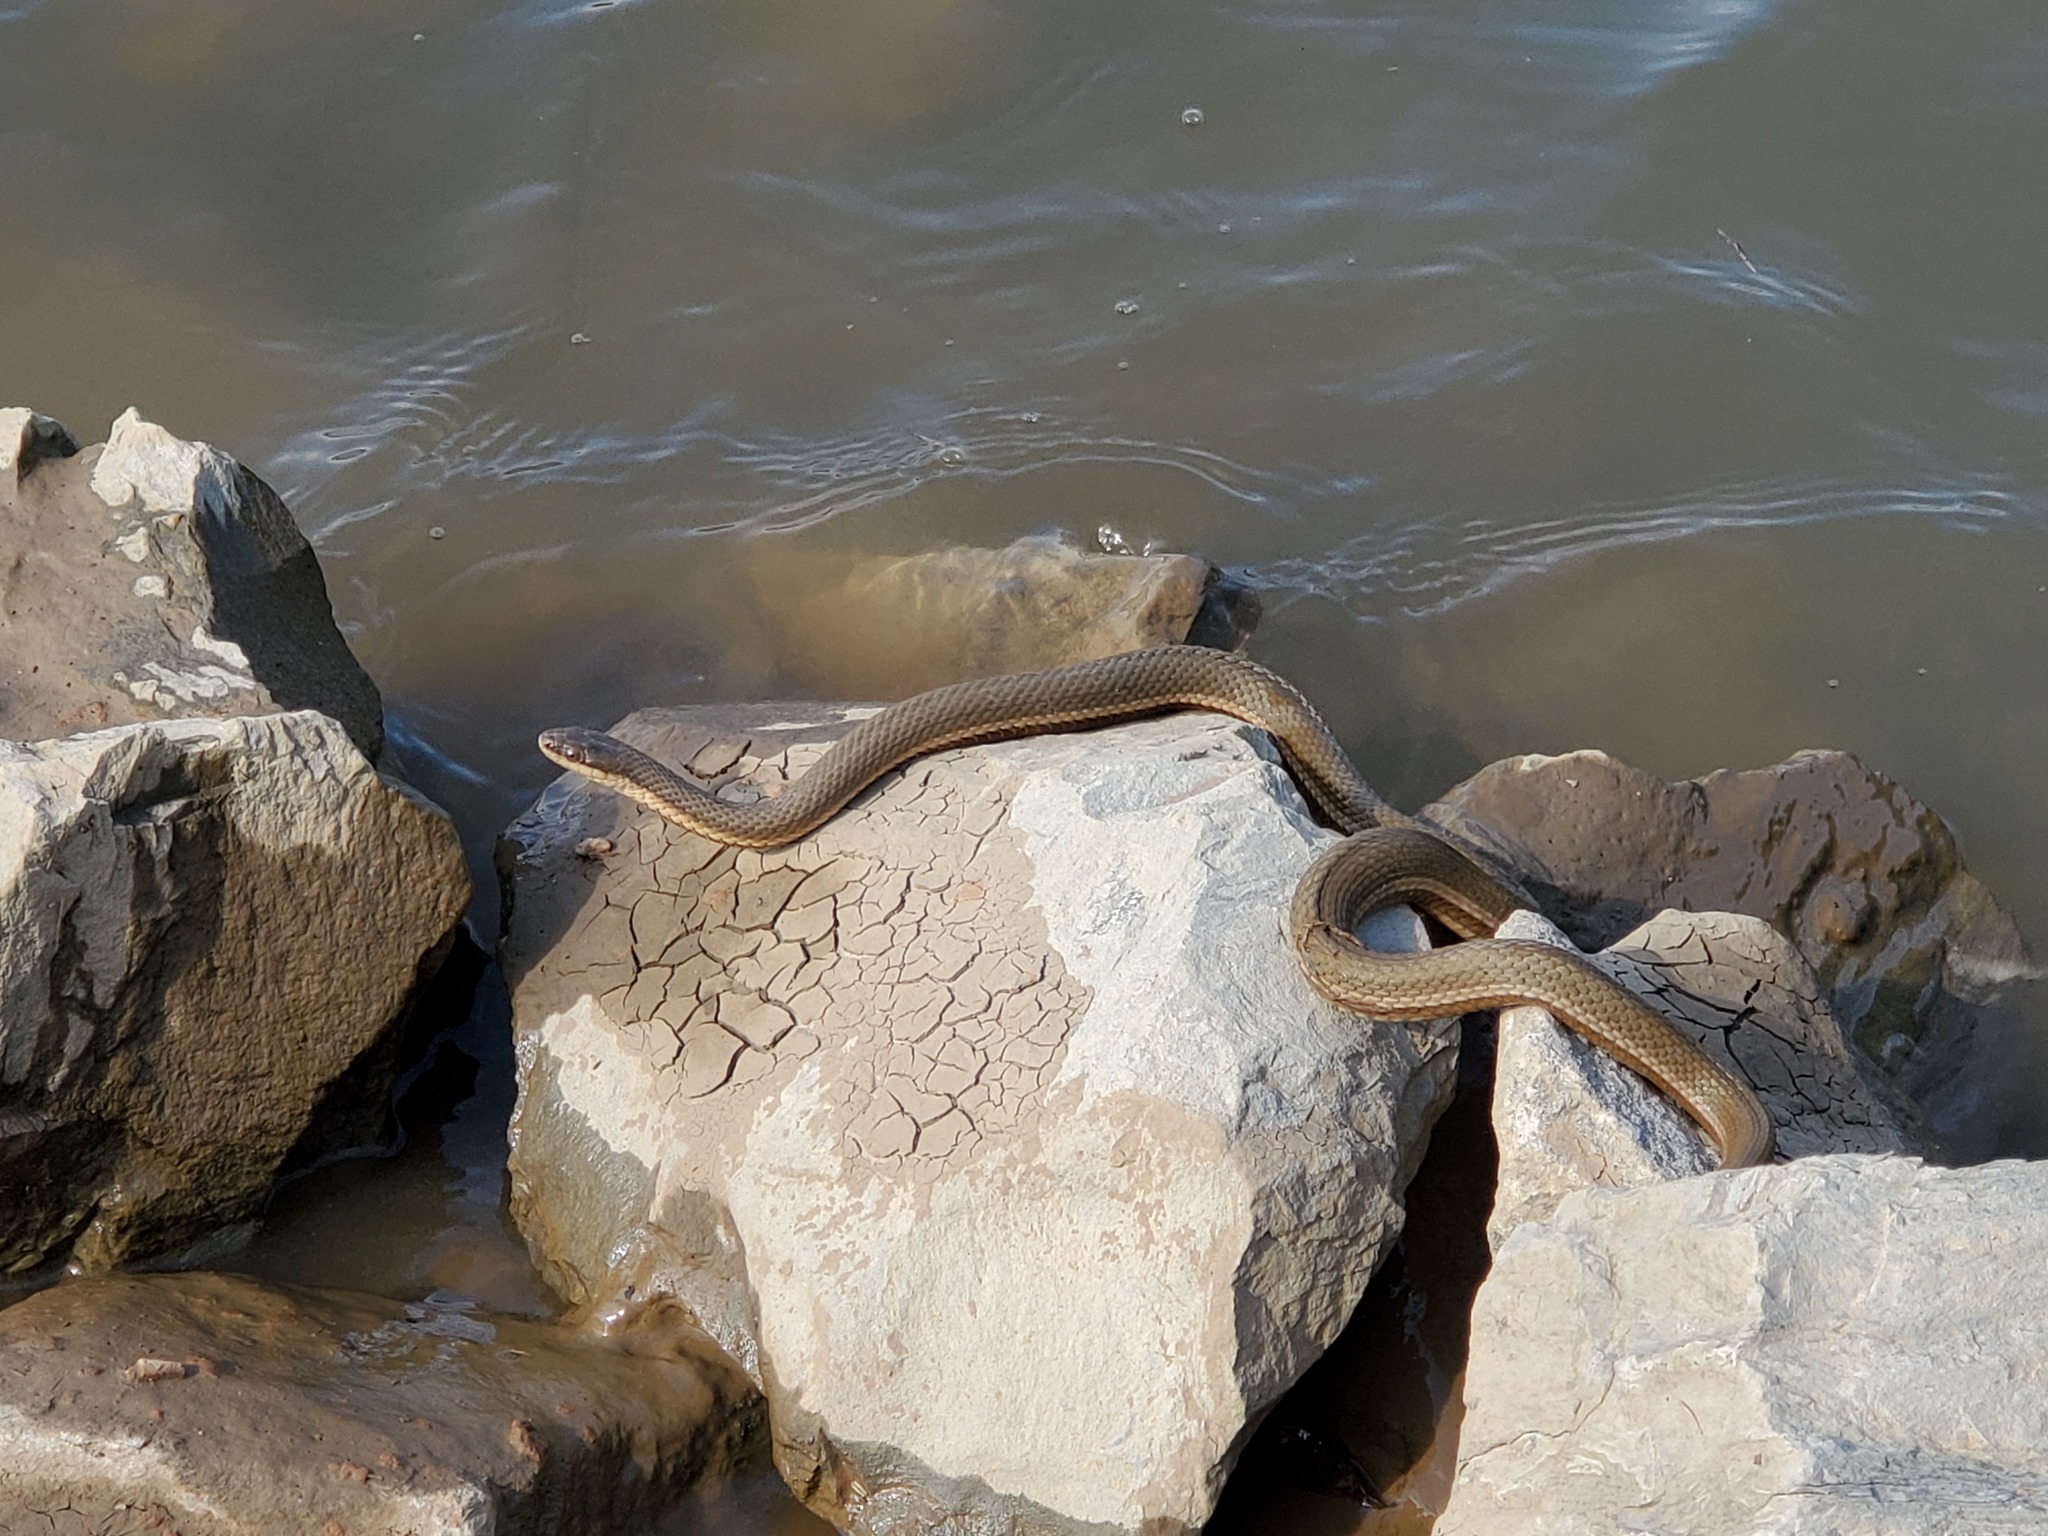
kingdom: Animalia
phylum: Chordata
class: Squamata
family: Colubridae
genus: Regina
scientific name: Regina septemvittata
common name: Queen snake
